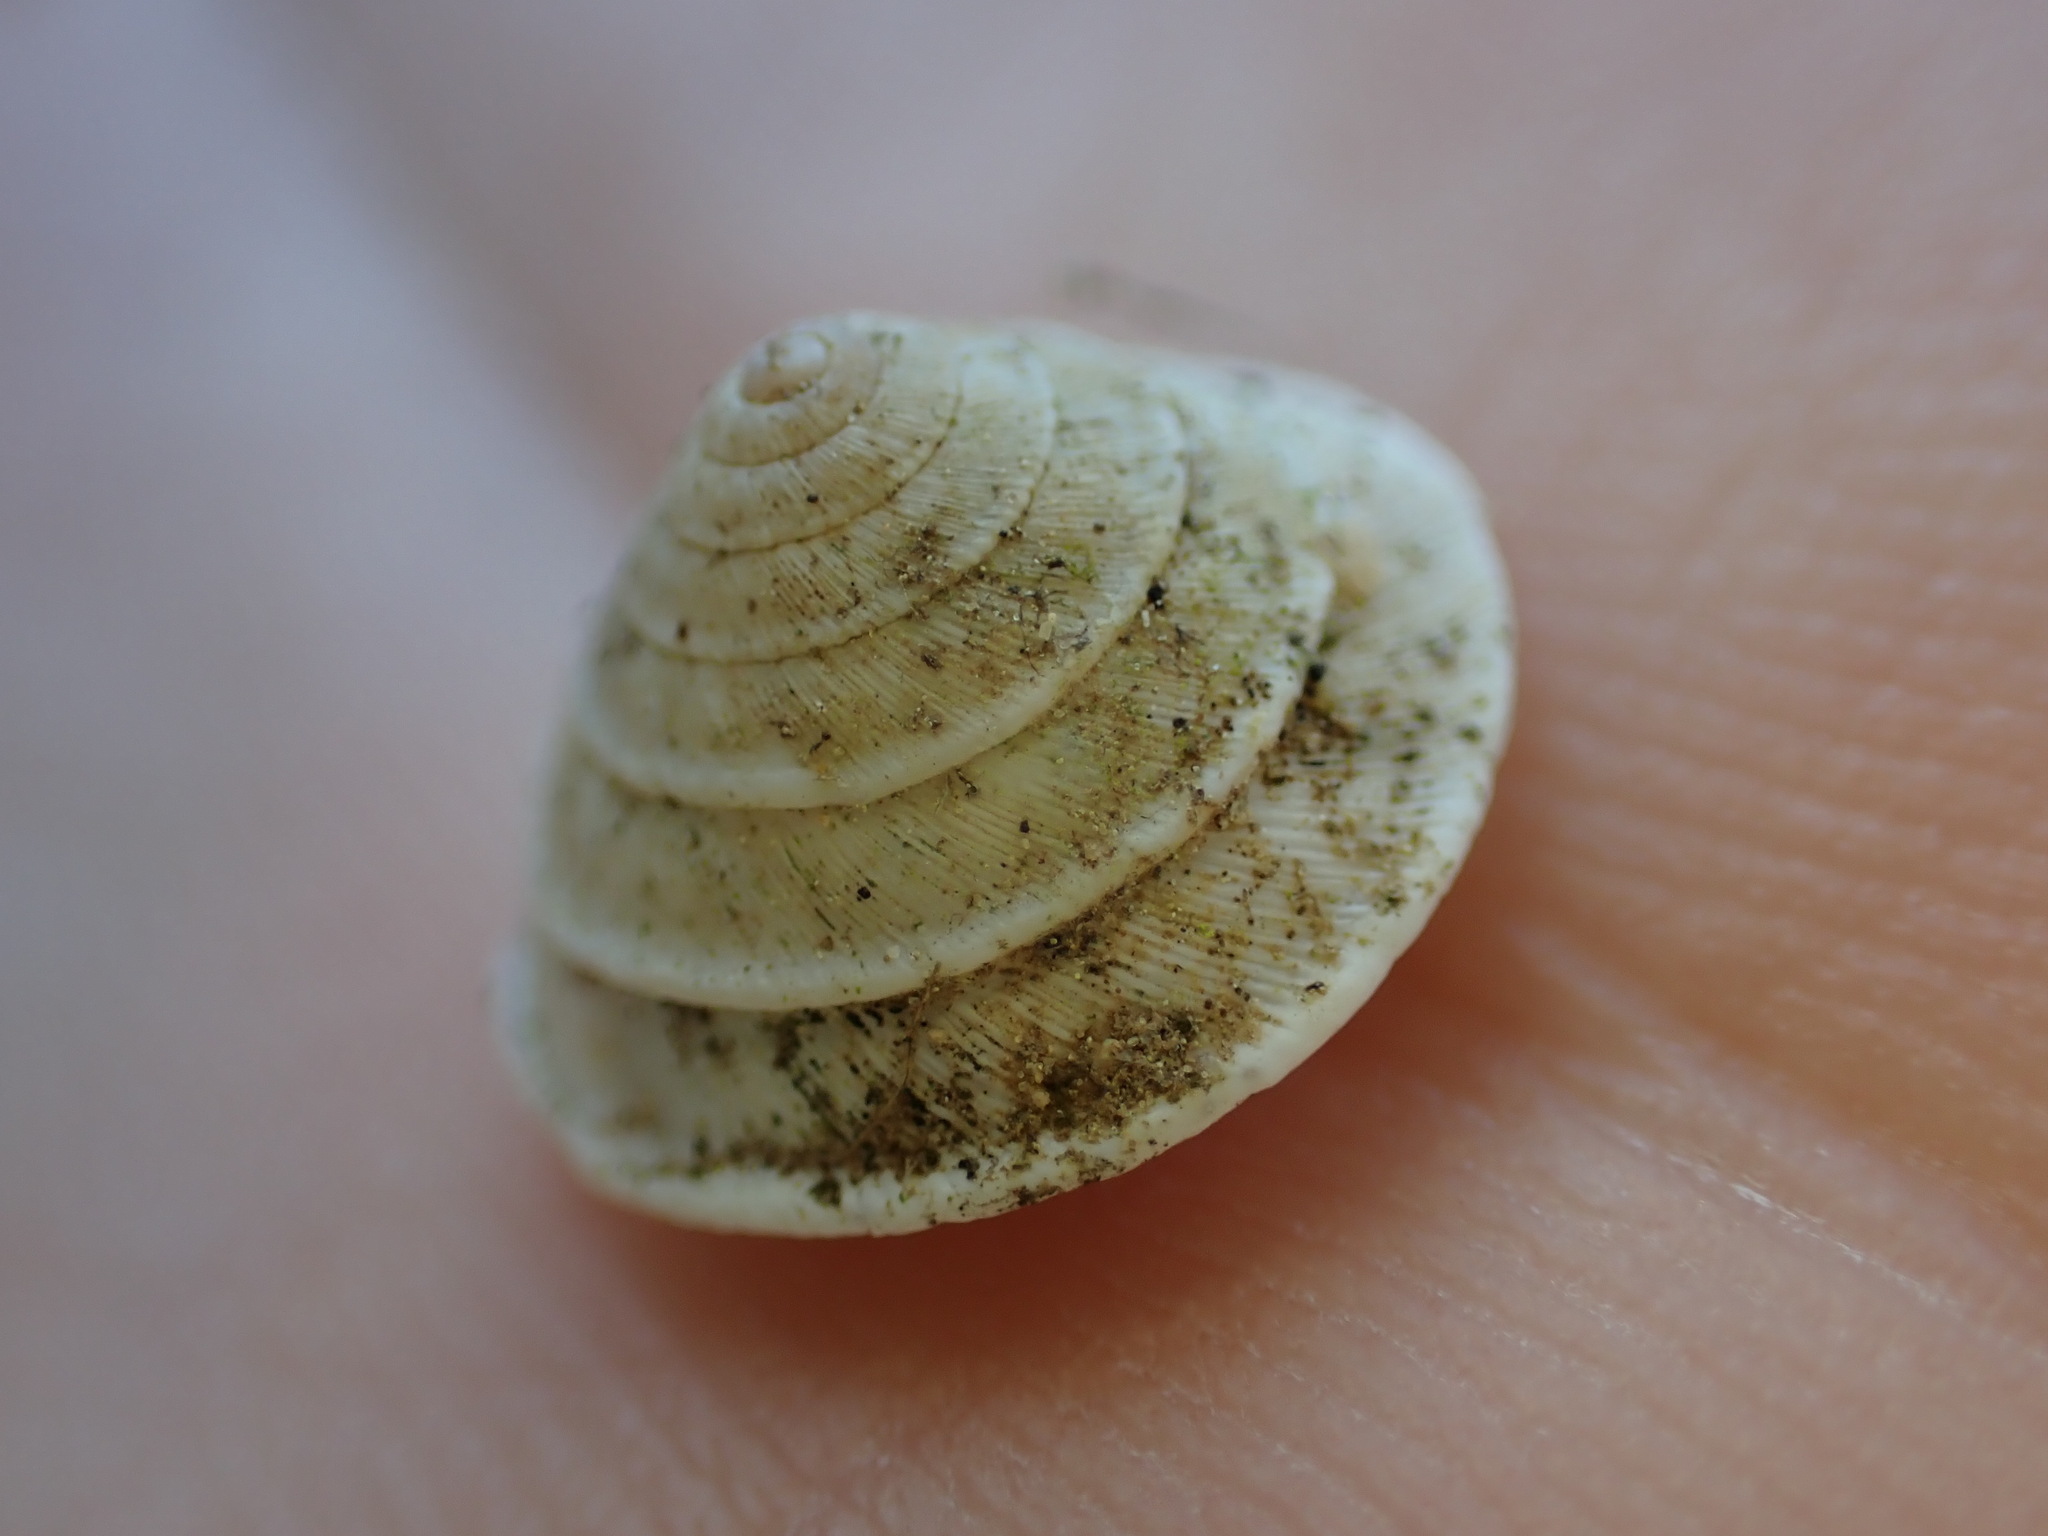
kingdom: Animalia
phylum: Mollusca
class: Gastropoda
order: Stylommatophora
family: Geomitridae
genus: Trochoidea
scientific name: Trochoidea elegans
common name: Elegant helicellid
